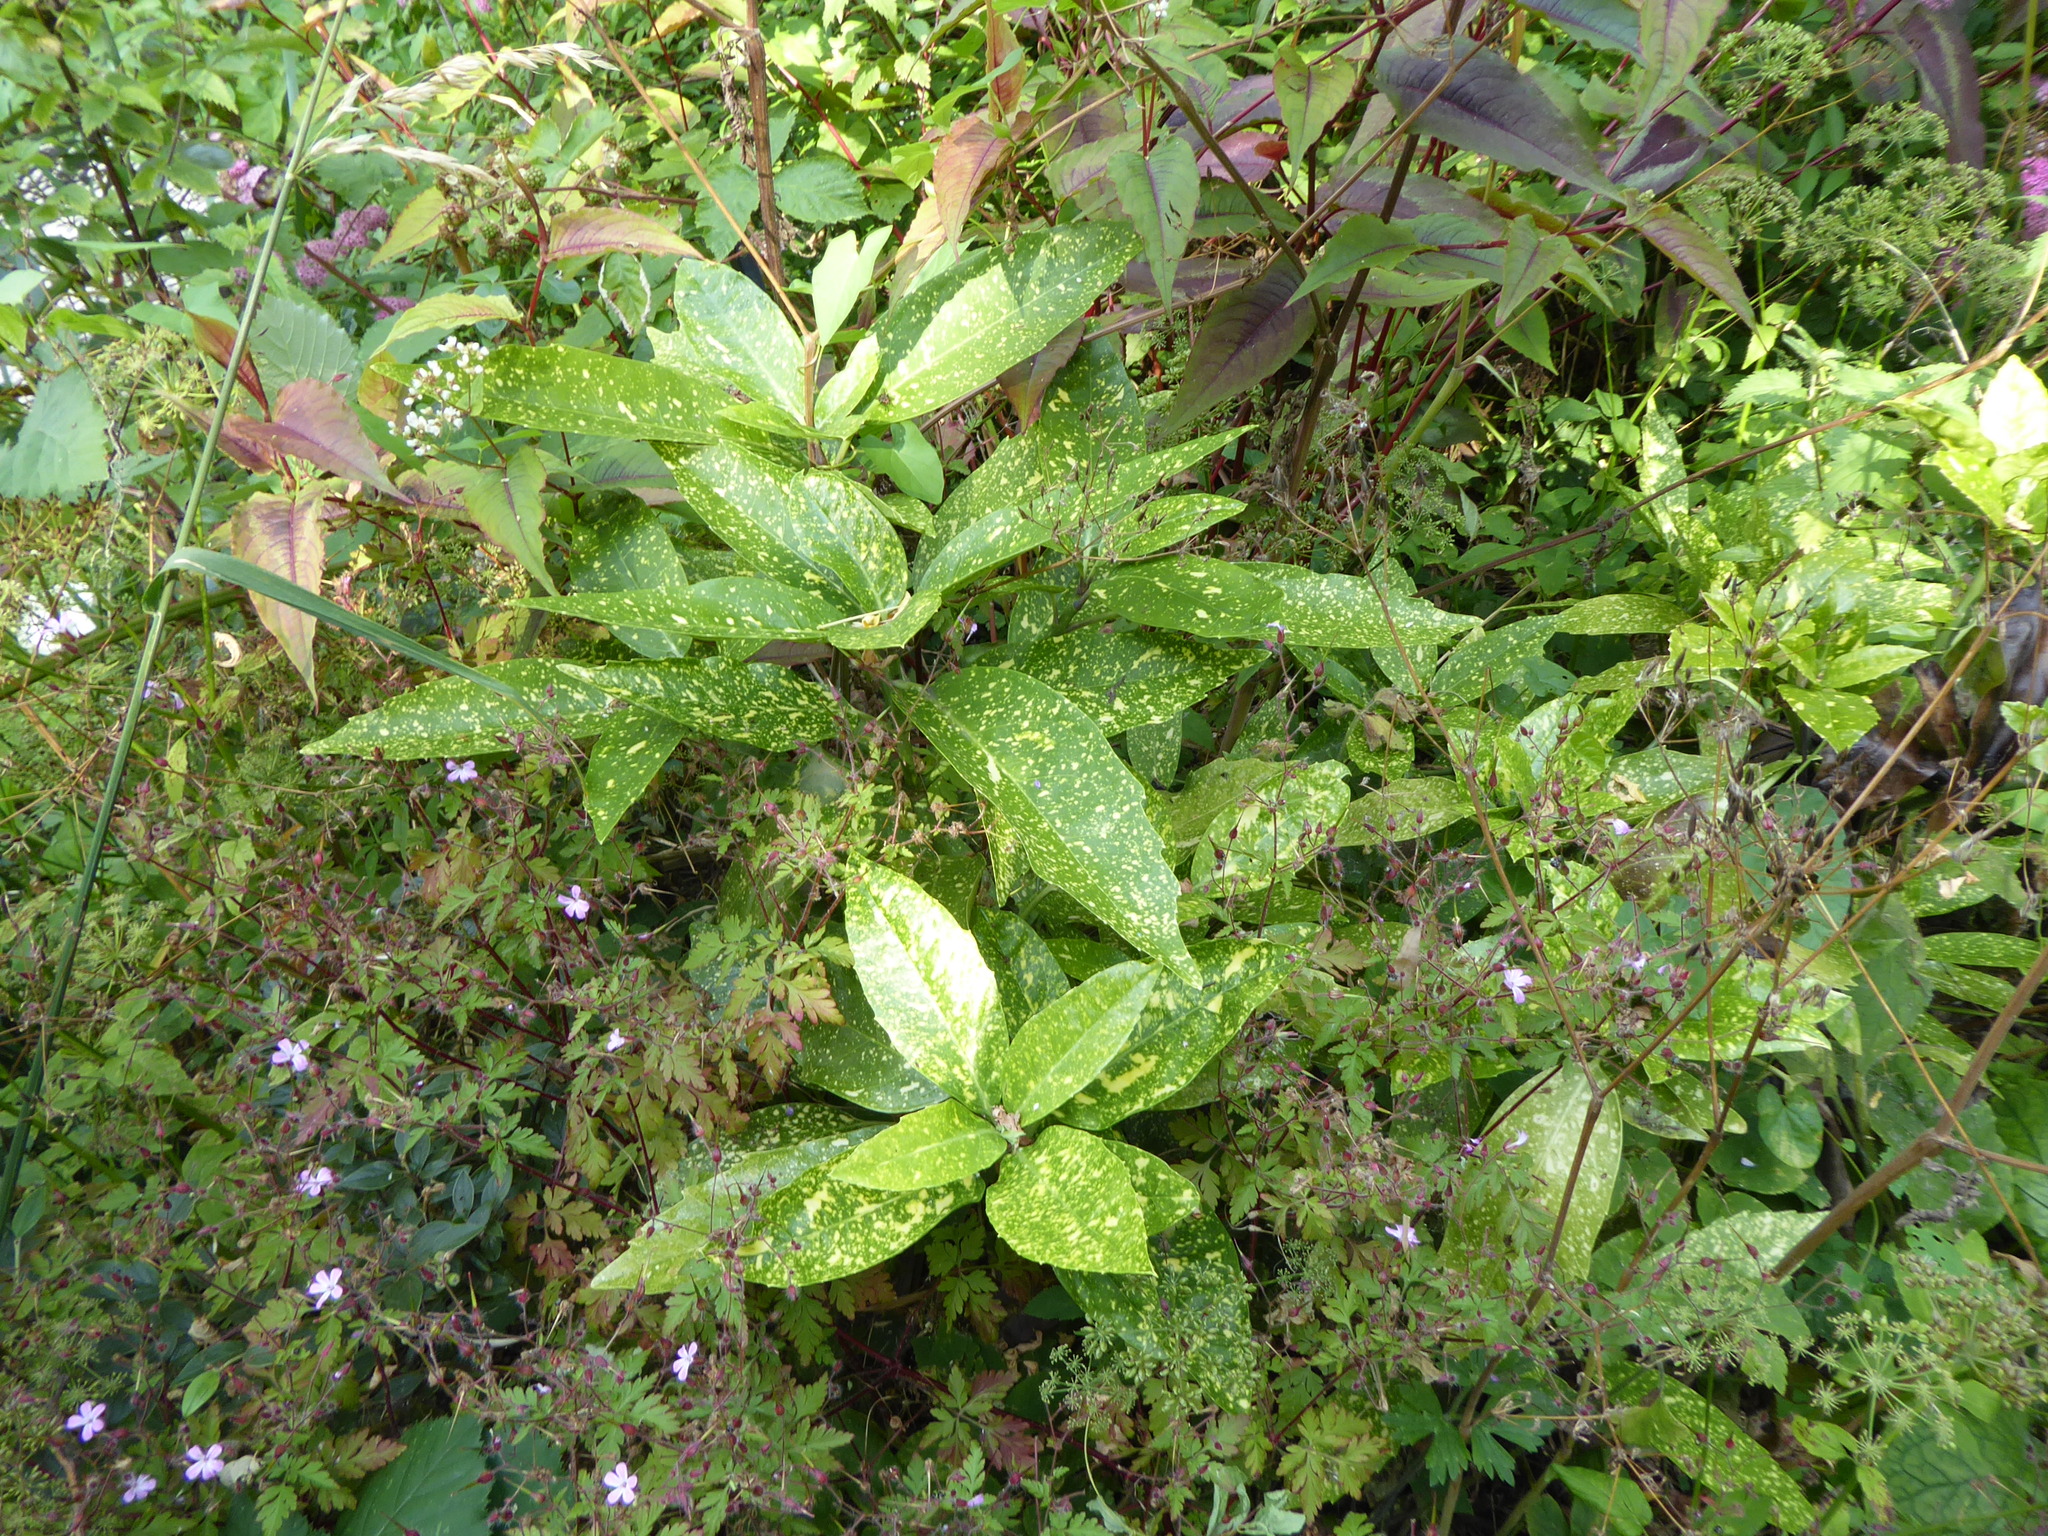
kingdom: Plantae
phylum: Tracheophyta
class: Magnoliopsida
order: Garryales
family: Garryaceae
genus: Aucuba
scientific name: Aucuba japonica
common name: Spotted-laurel
